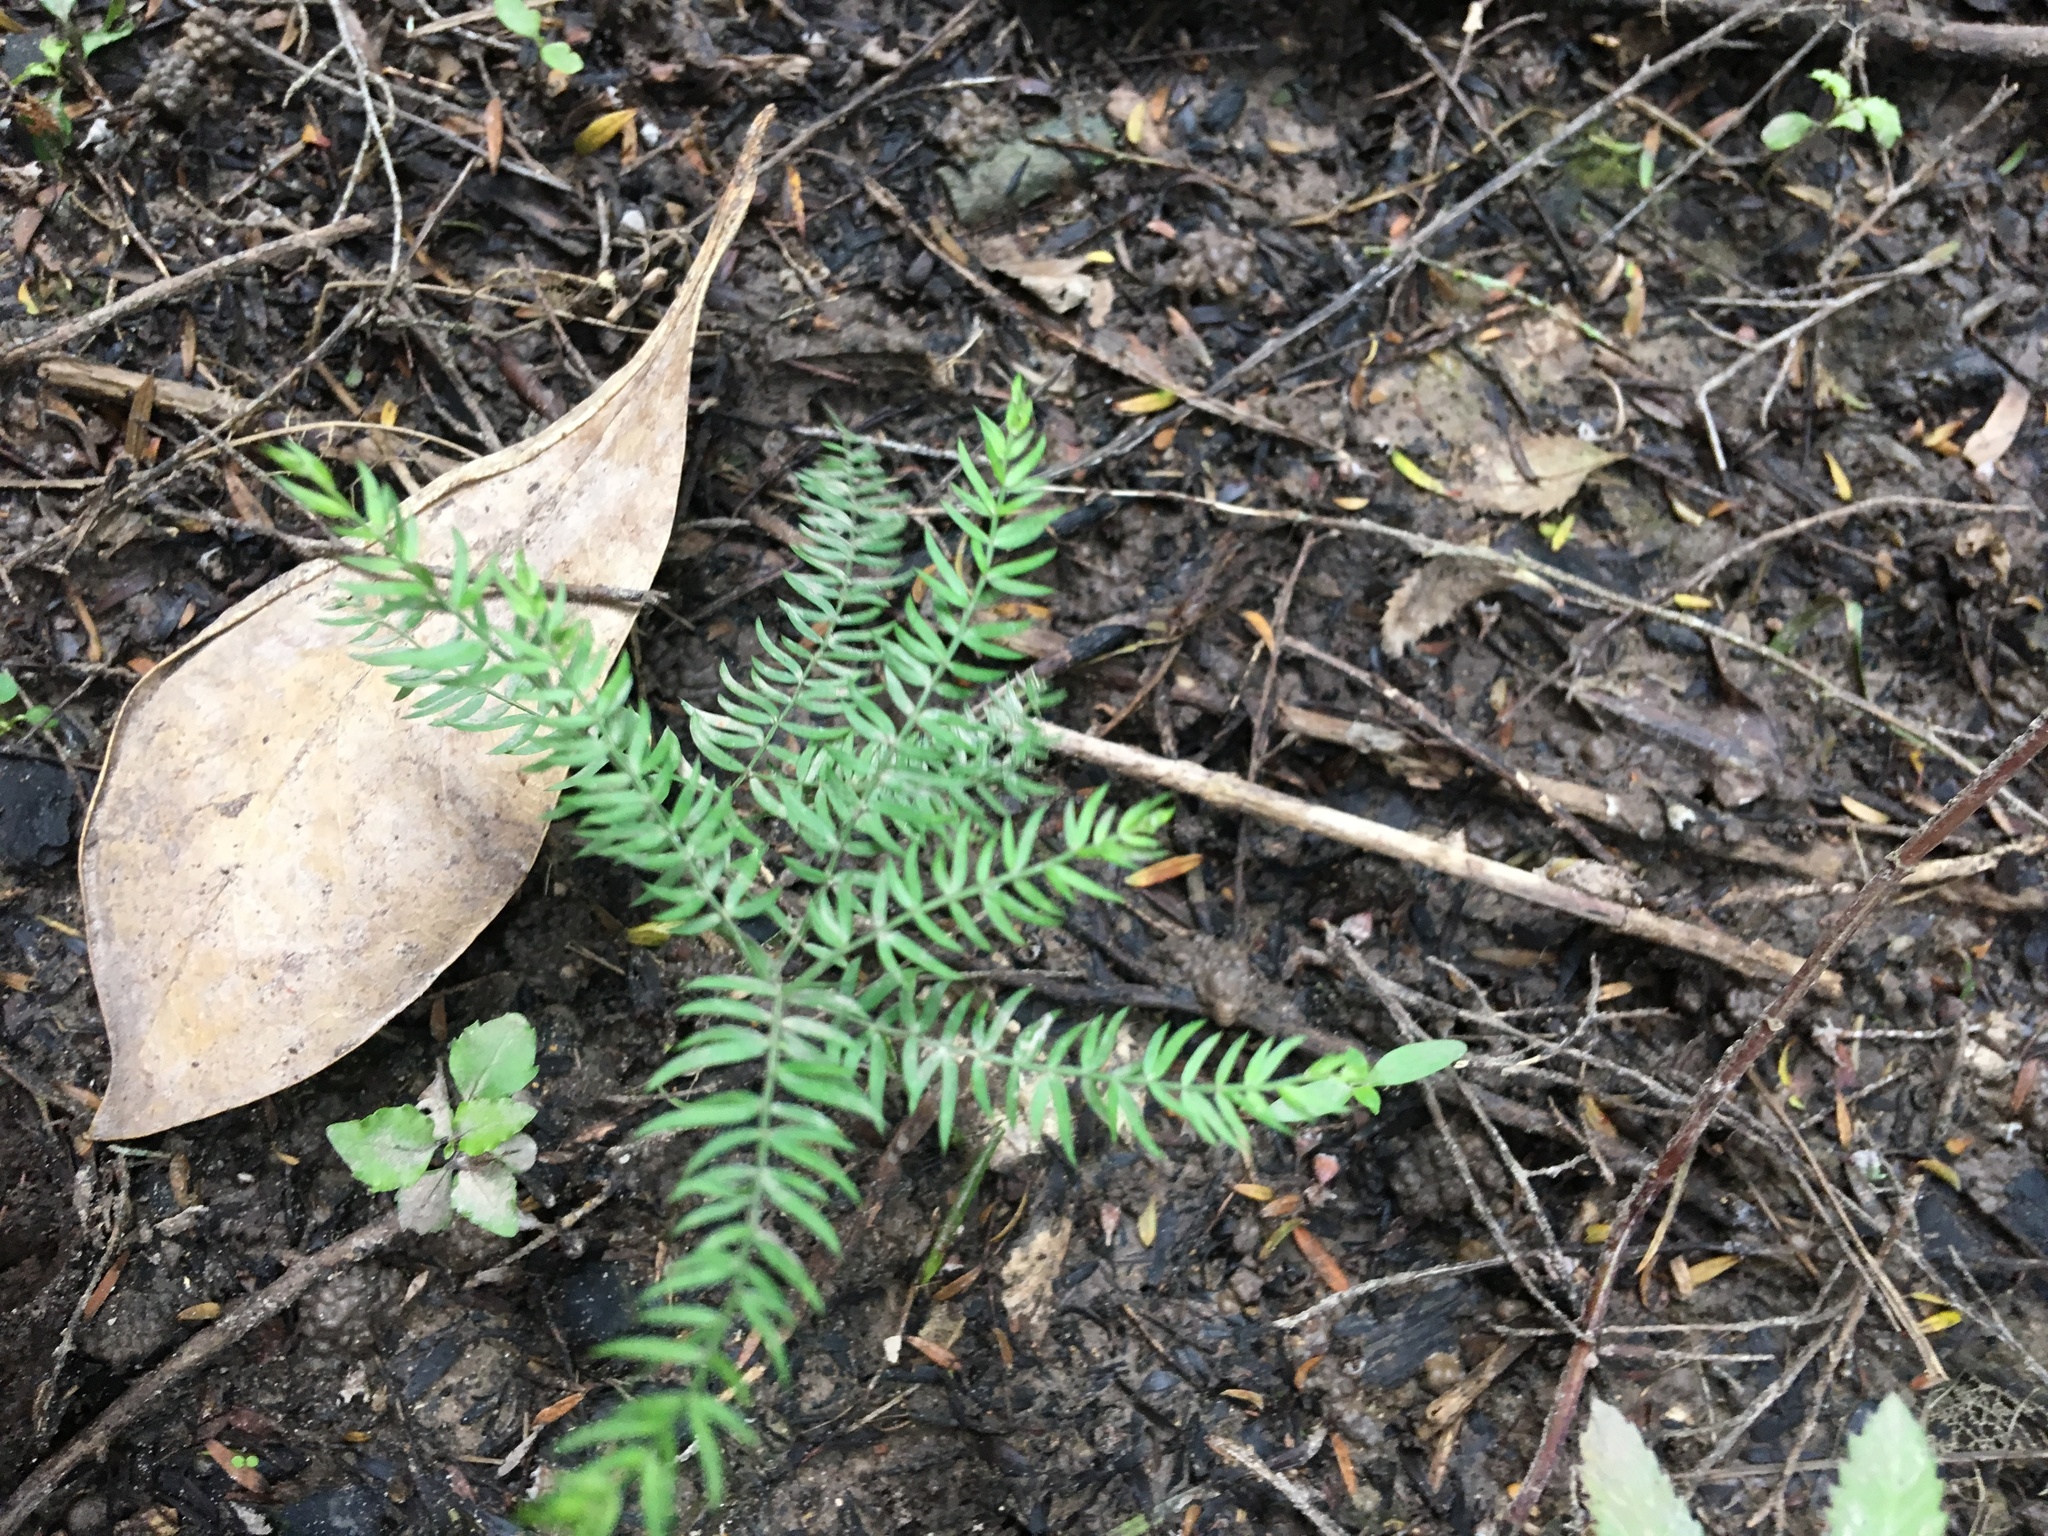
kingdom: Plantae
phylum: Tracheophyta
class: Liliopsida
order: Asparagales
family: Asparagaceae
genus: Asparagus
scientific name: Asparagus scandens
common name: Asparagus-fern
